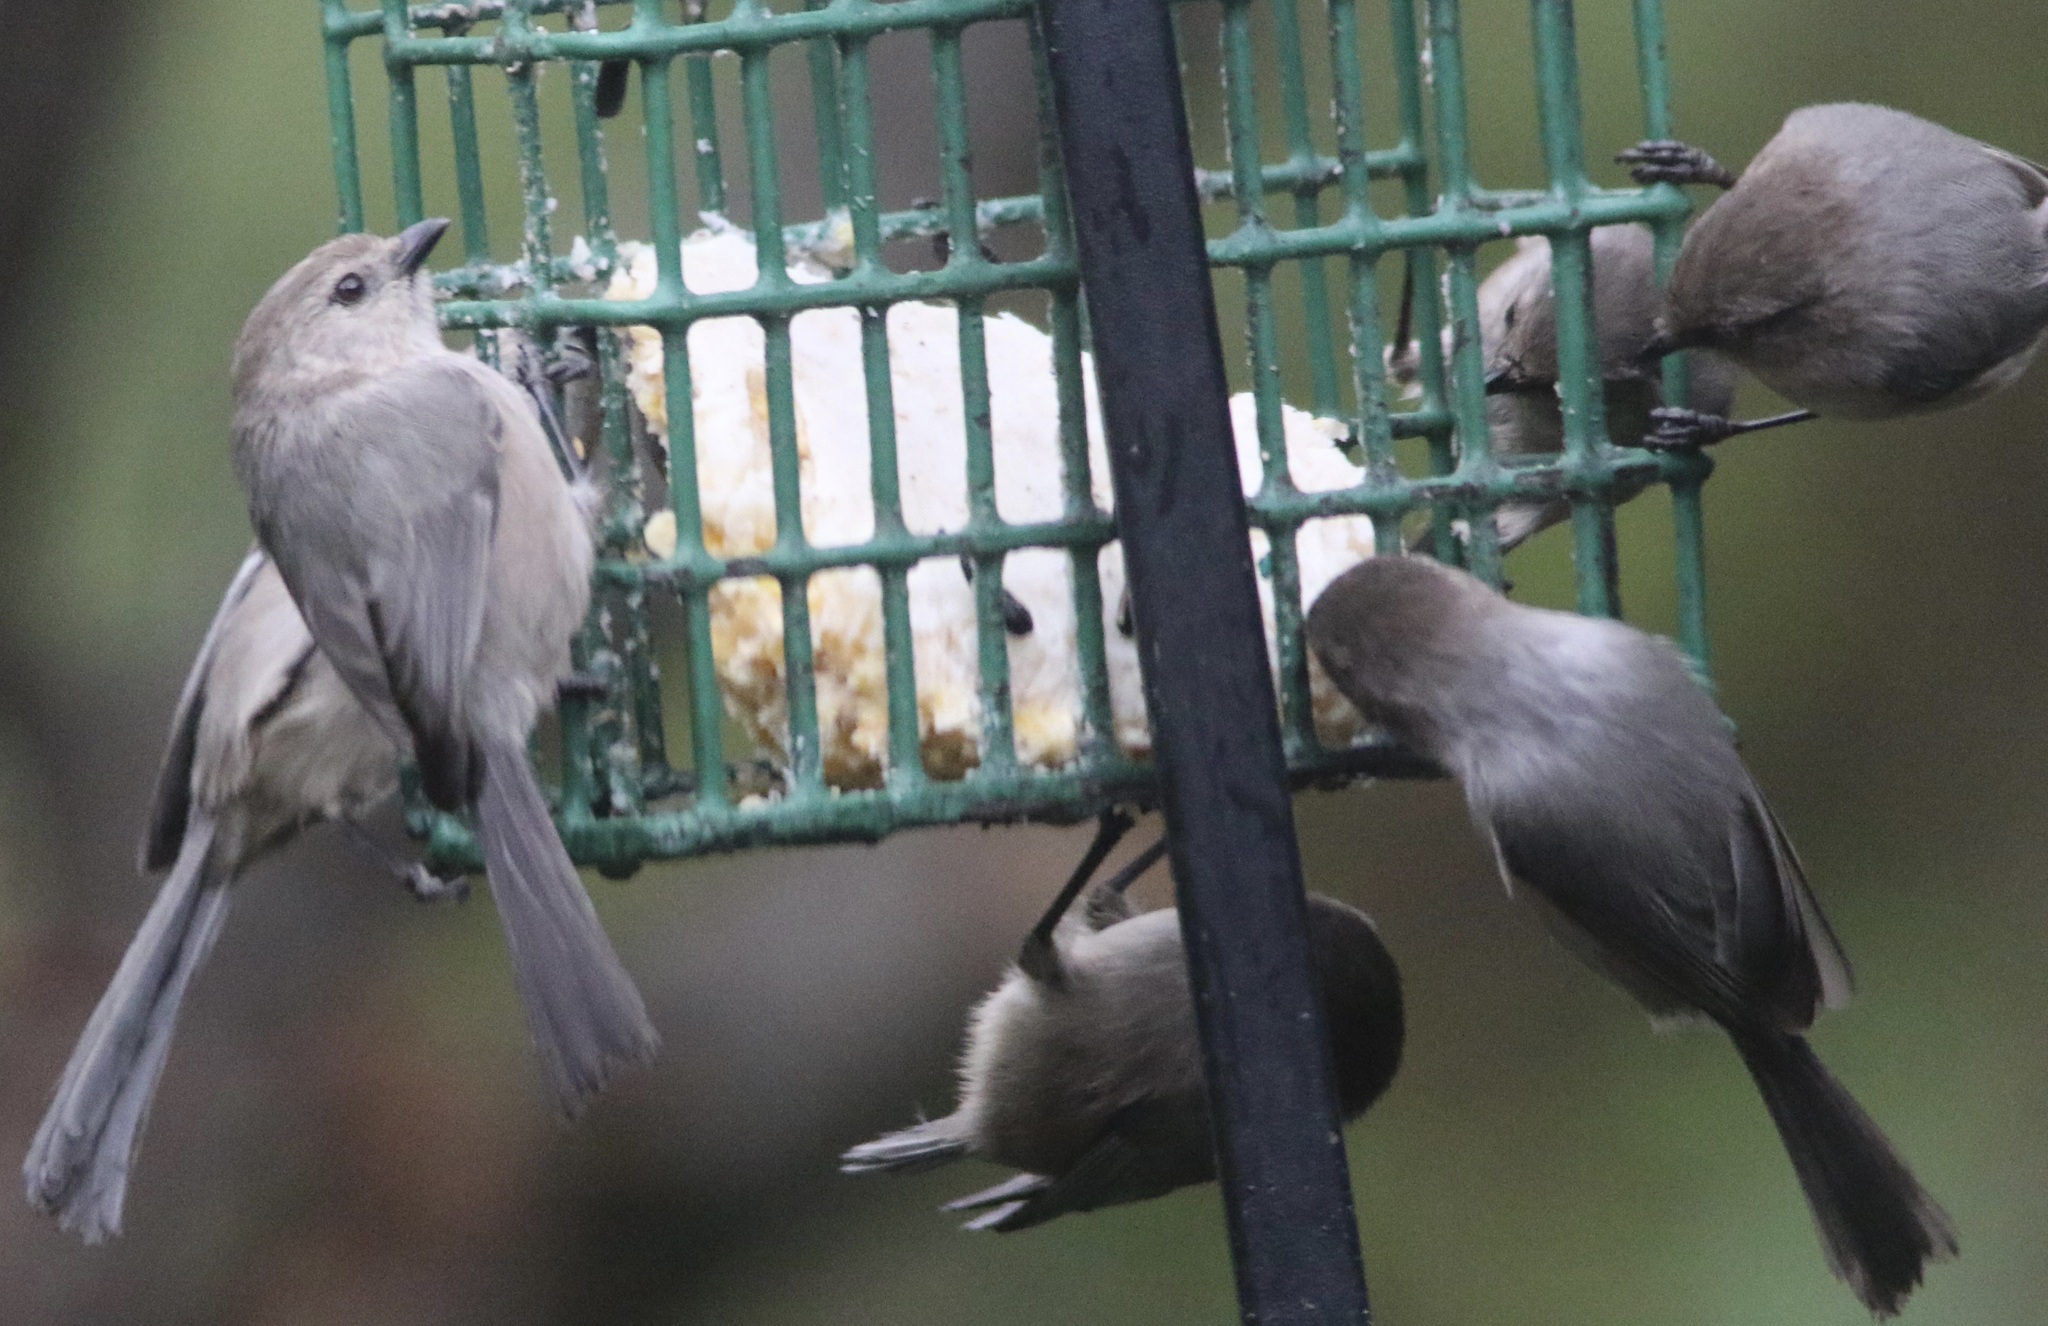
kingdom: Animalia
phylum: Chordata
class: Aves
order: Passeriformes
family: Aegithalidae
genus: Psaltriparus
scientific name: Psaltriparus minimus
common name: American bushtit
